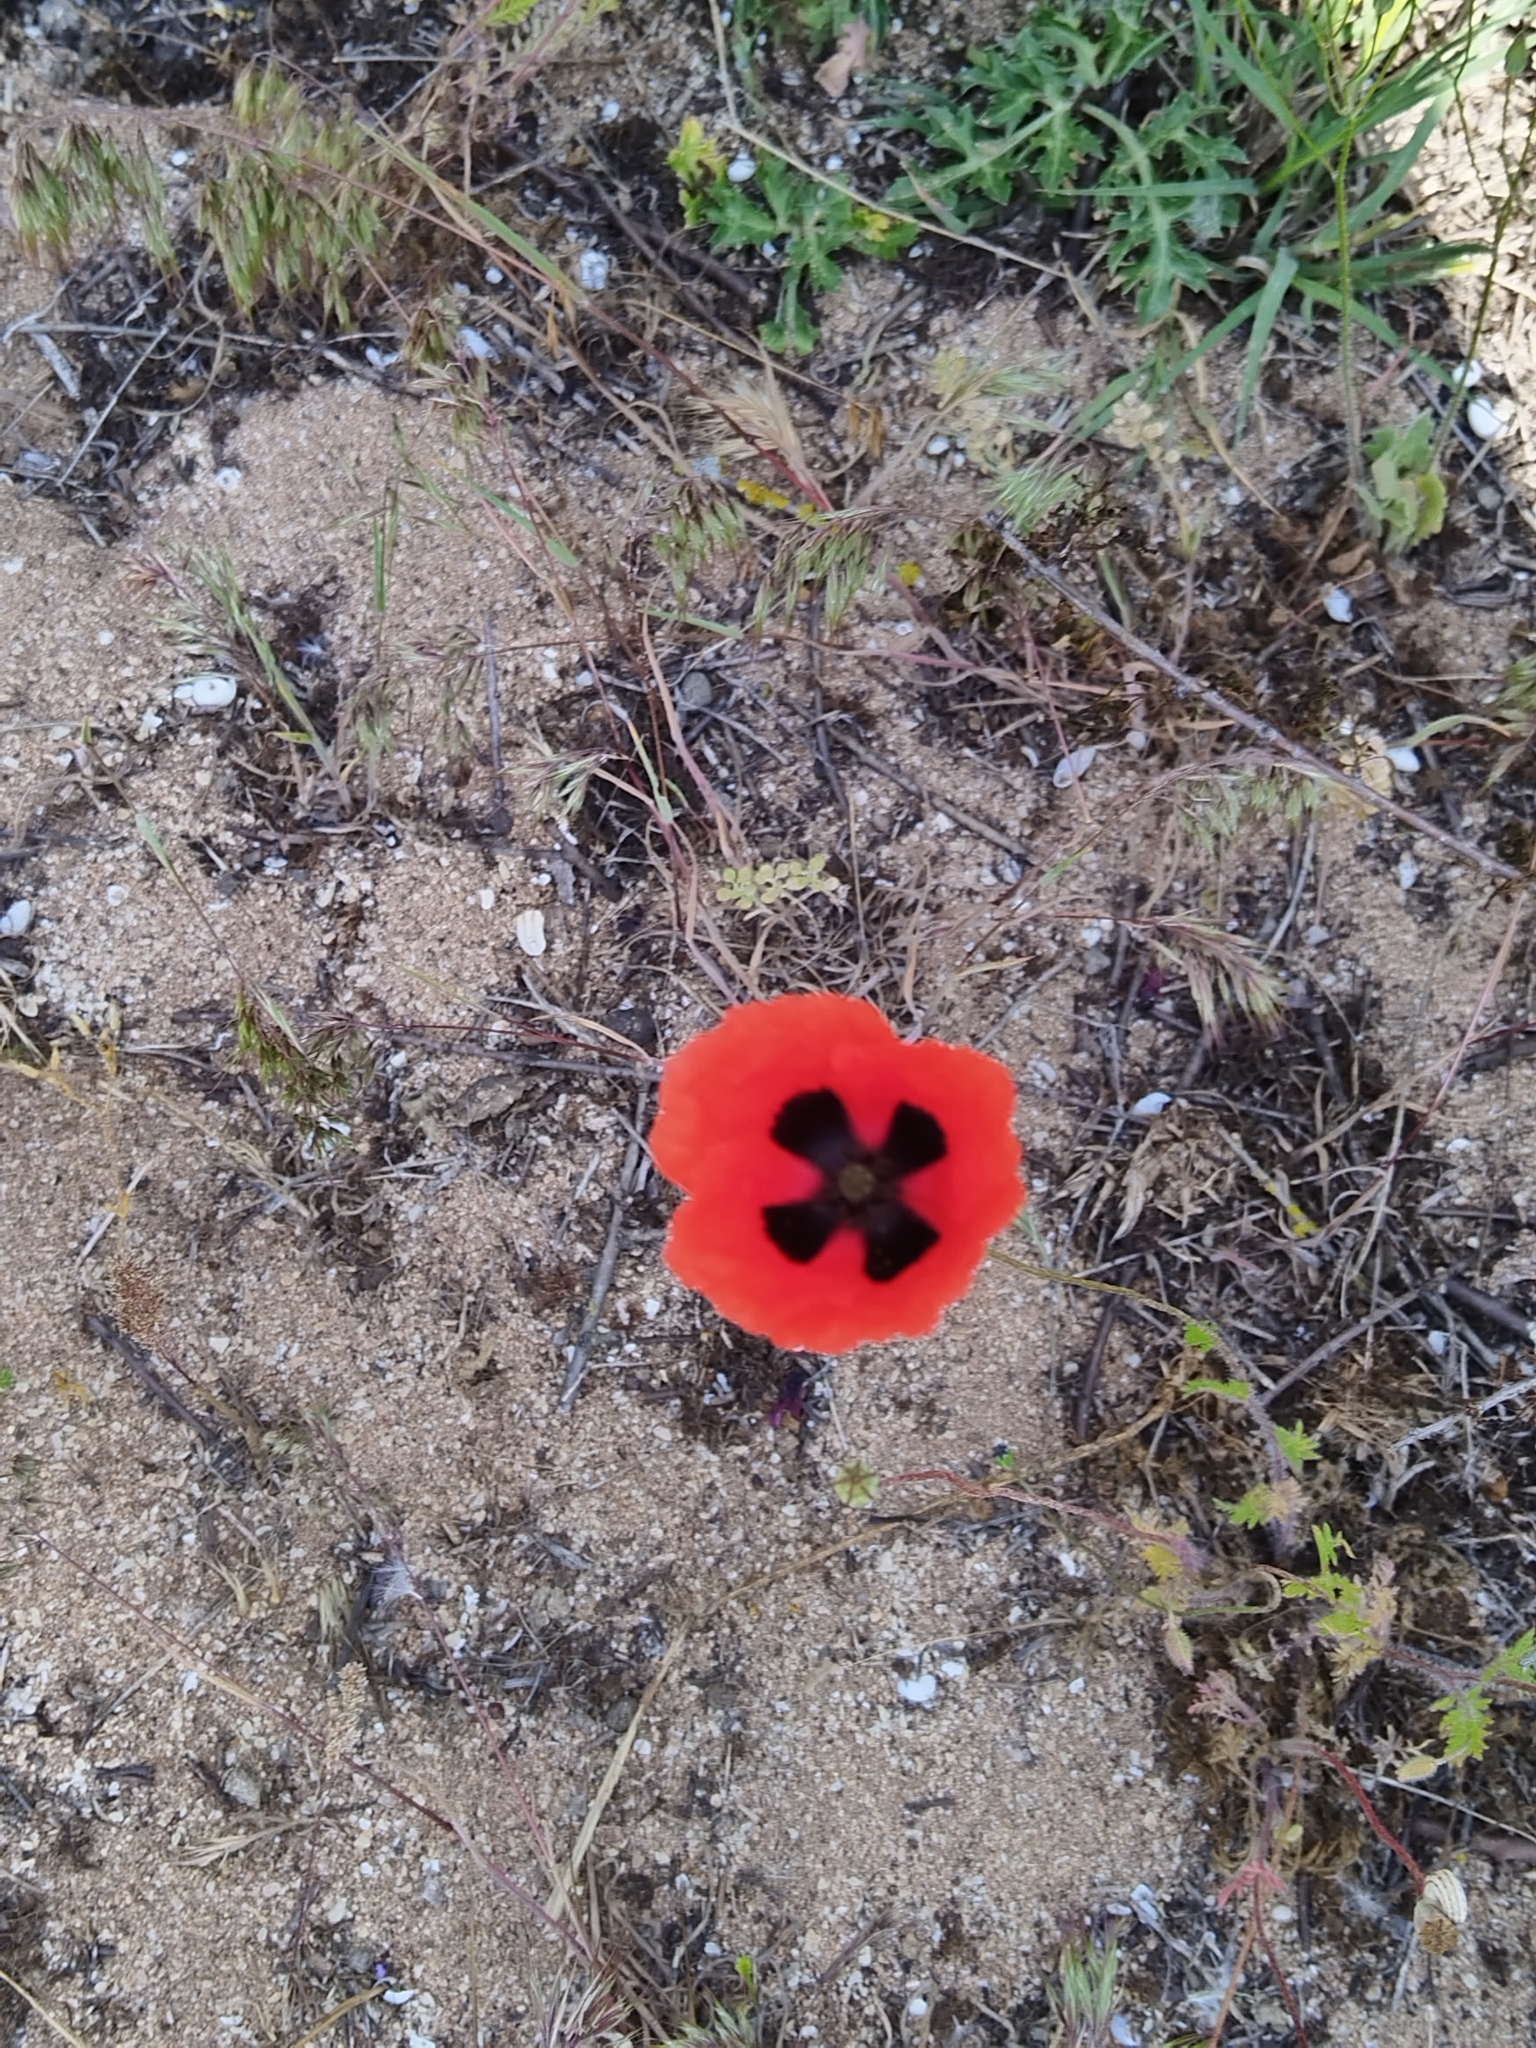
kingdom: Plantae
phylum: Tracheophyta
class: Magnoliopsida
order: Ranunculales
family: Papaveraceae
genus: Papaver
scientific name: Papaver arenarium
